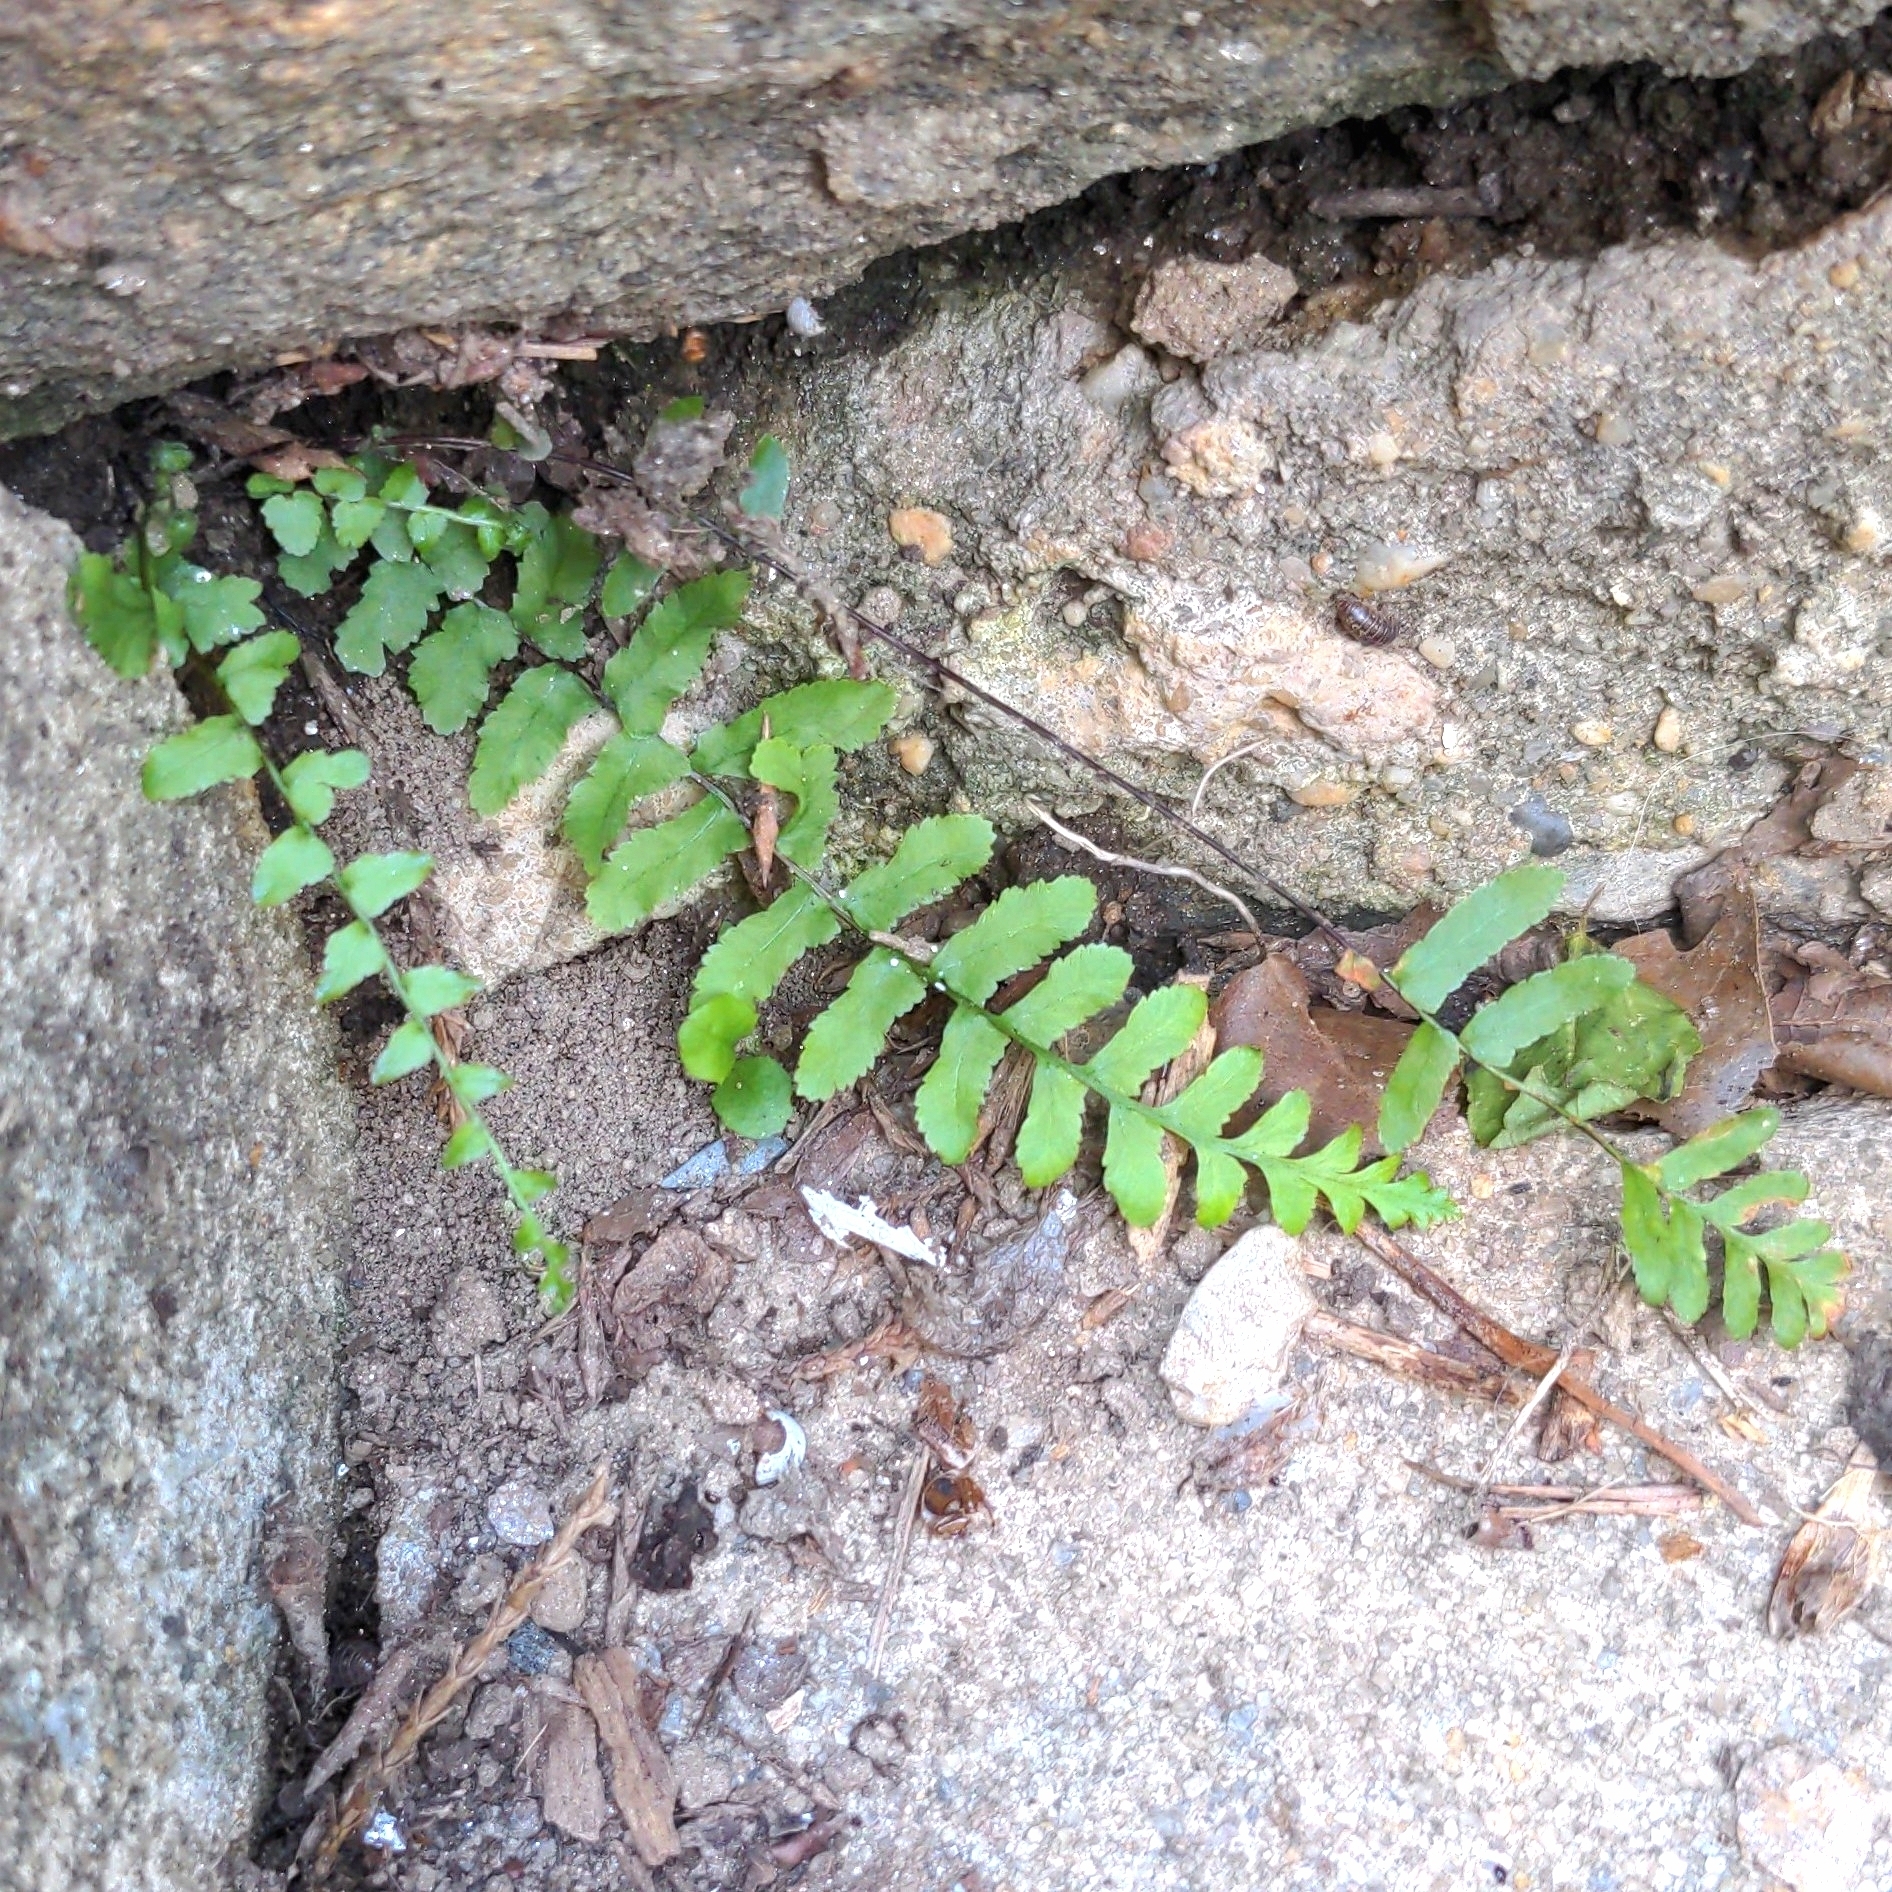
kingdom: Plantae
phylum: Tracheophyta
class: Polypodiopsida
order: Polypodiales
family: Aspleniaceae
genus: Asplenium
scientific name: Asplenium platyneuron
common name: Ebony spleenwort
